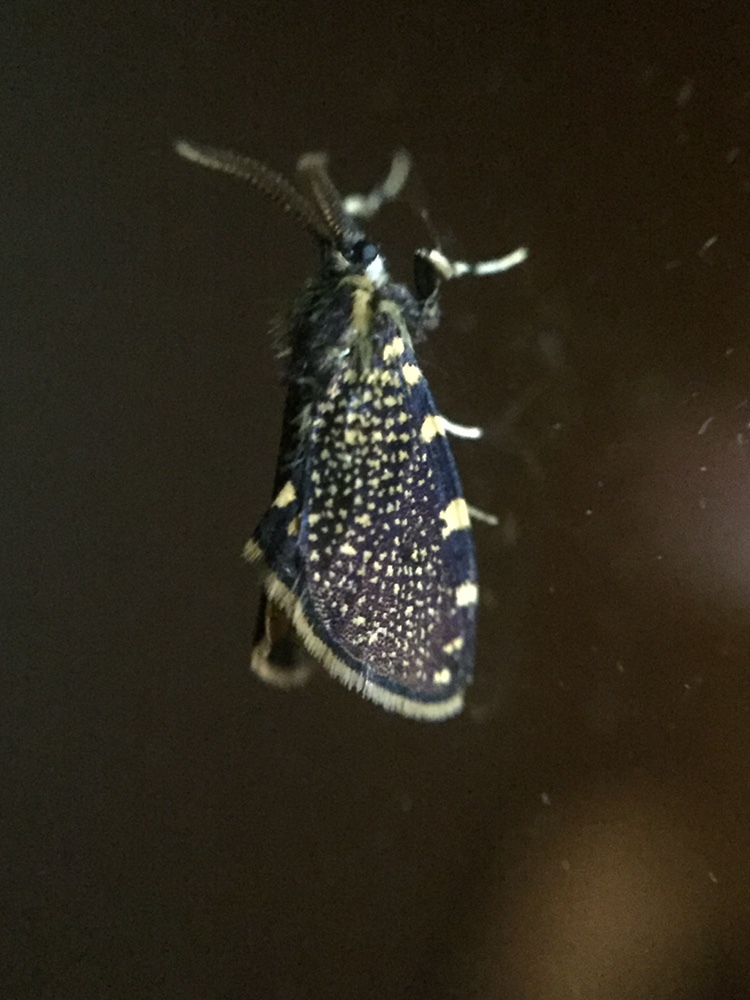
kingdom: Animalia
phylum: Arthropoda
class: Insecta
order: Lepidoptera
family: Psychidae
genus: Cebysa
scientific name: Cebysa leucotelus
